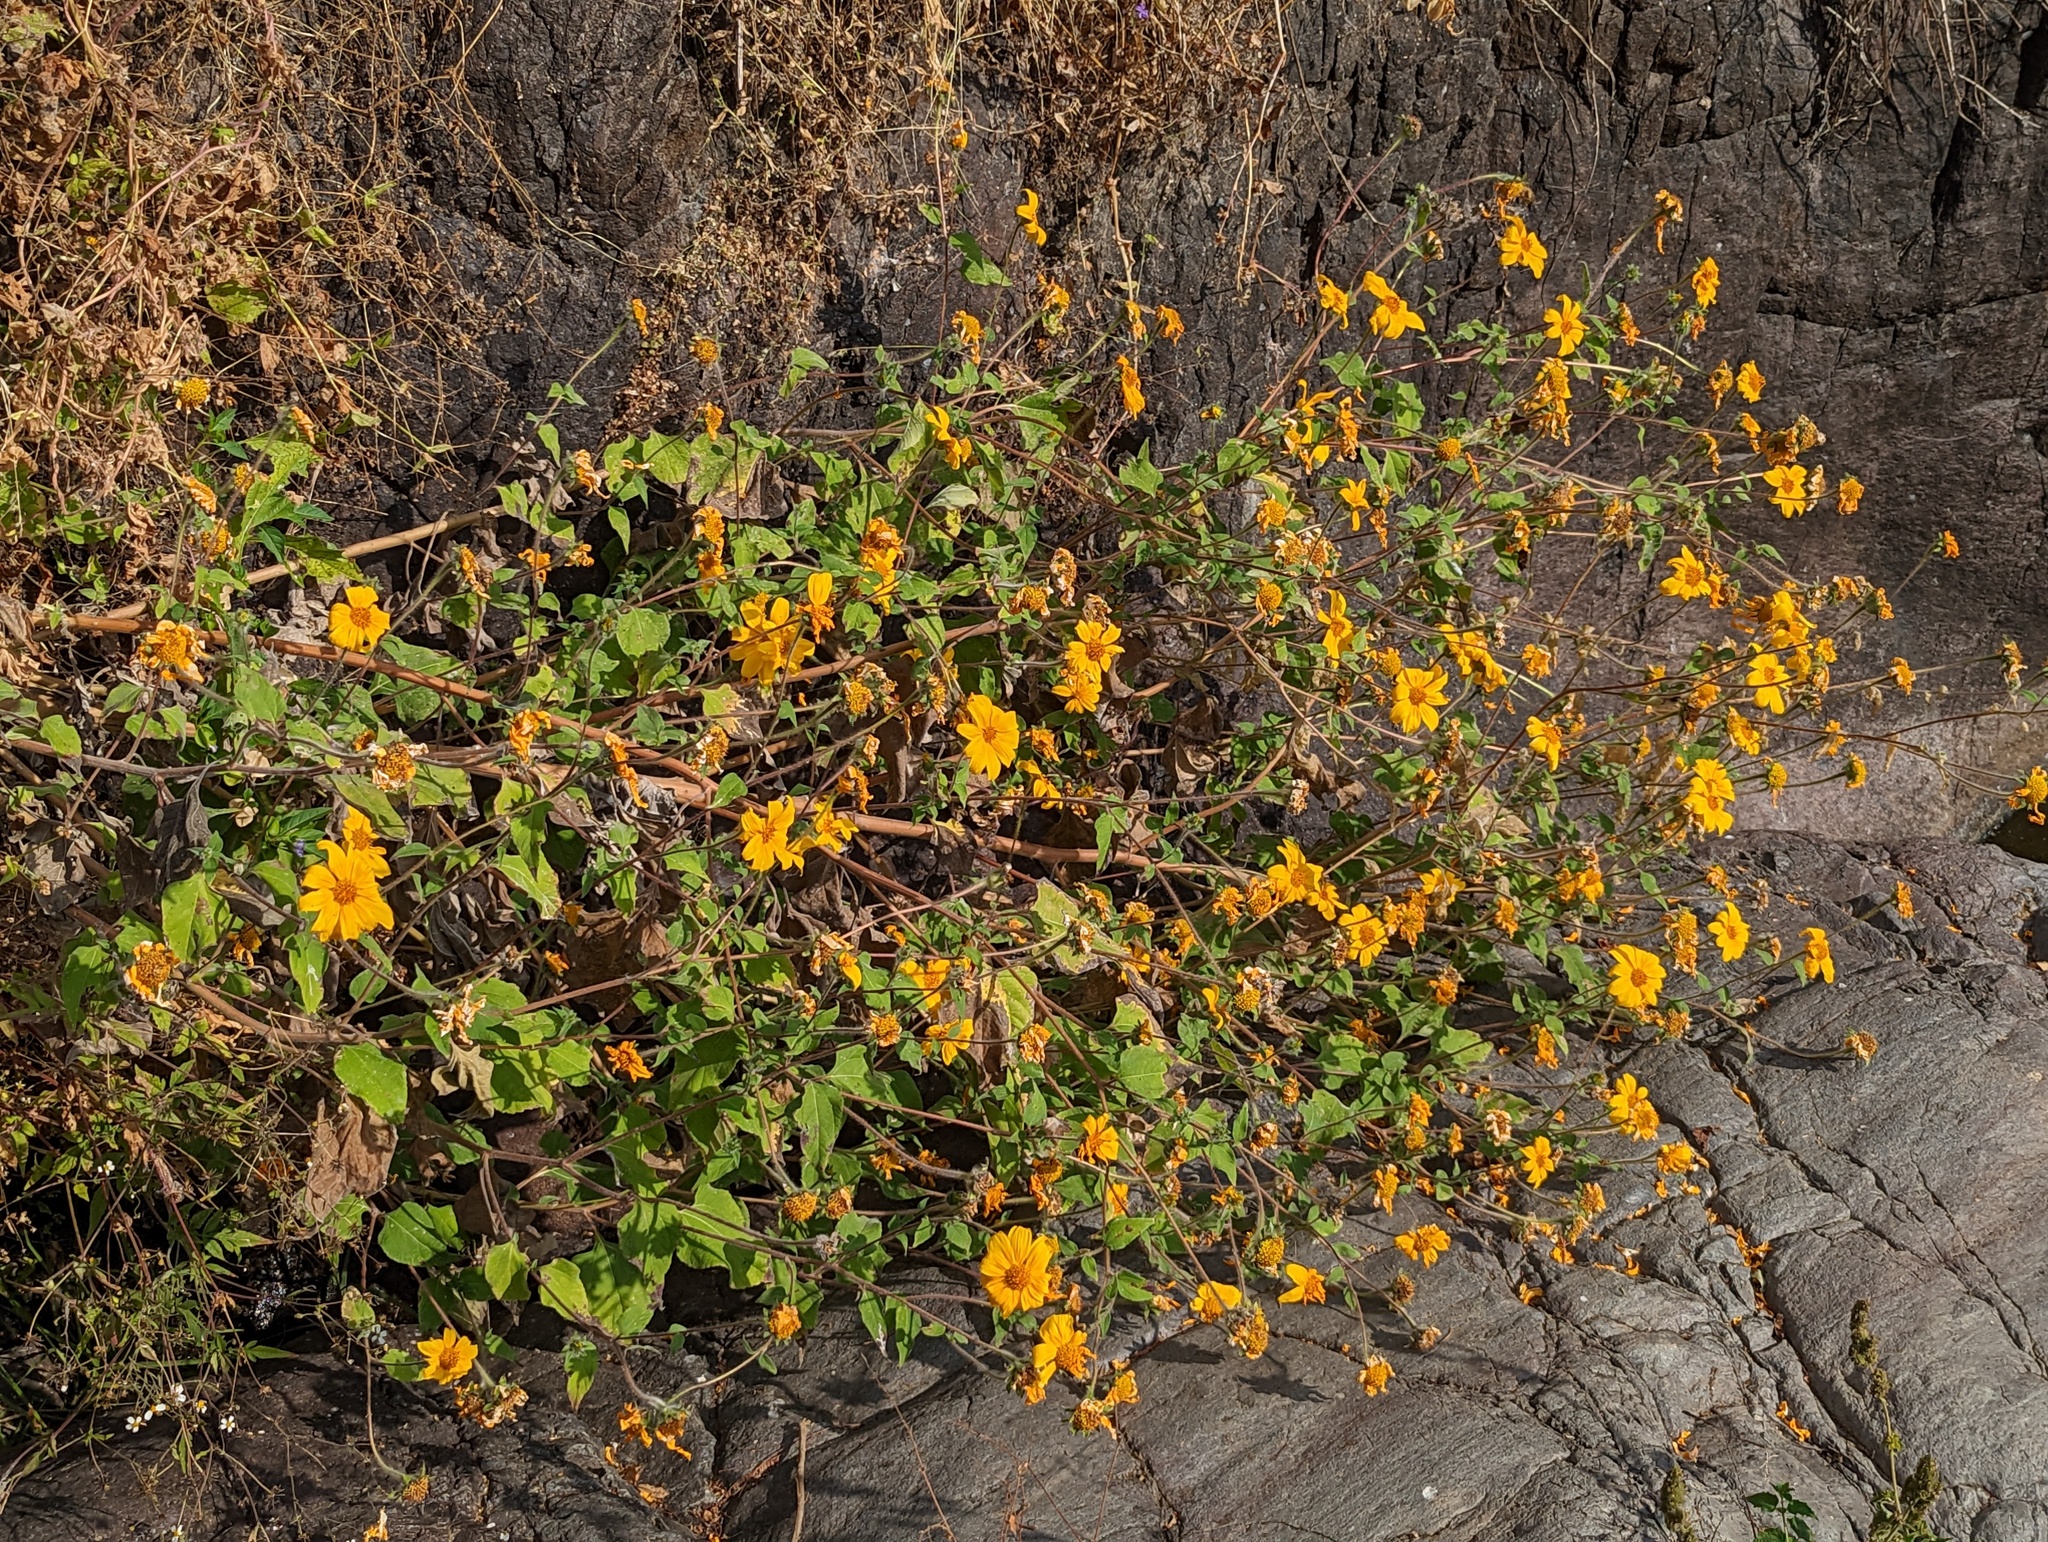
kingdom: Plantae
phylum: Tracheophyta
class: Magnoliopsida
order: Asterales
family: Asteraceae
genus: Tithonia
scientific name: Tithonia tubaeformis
